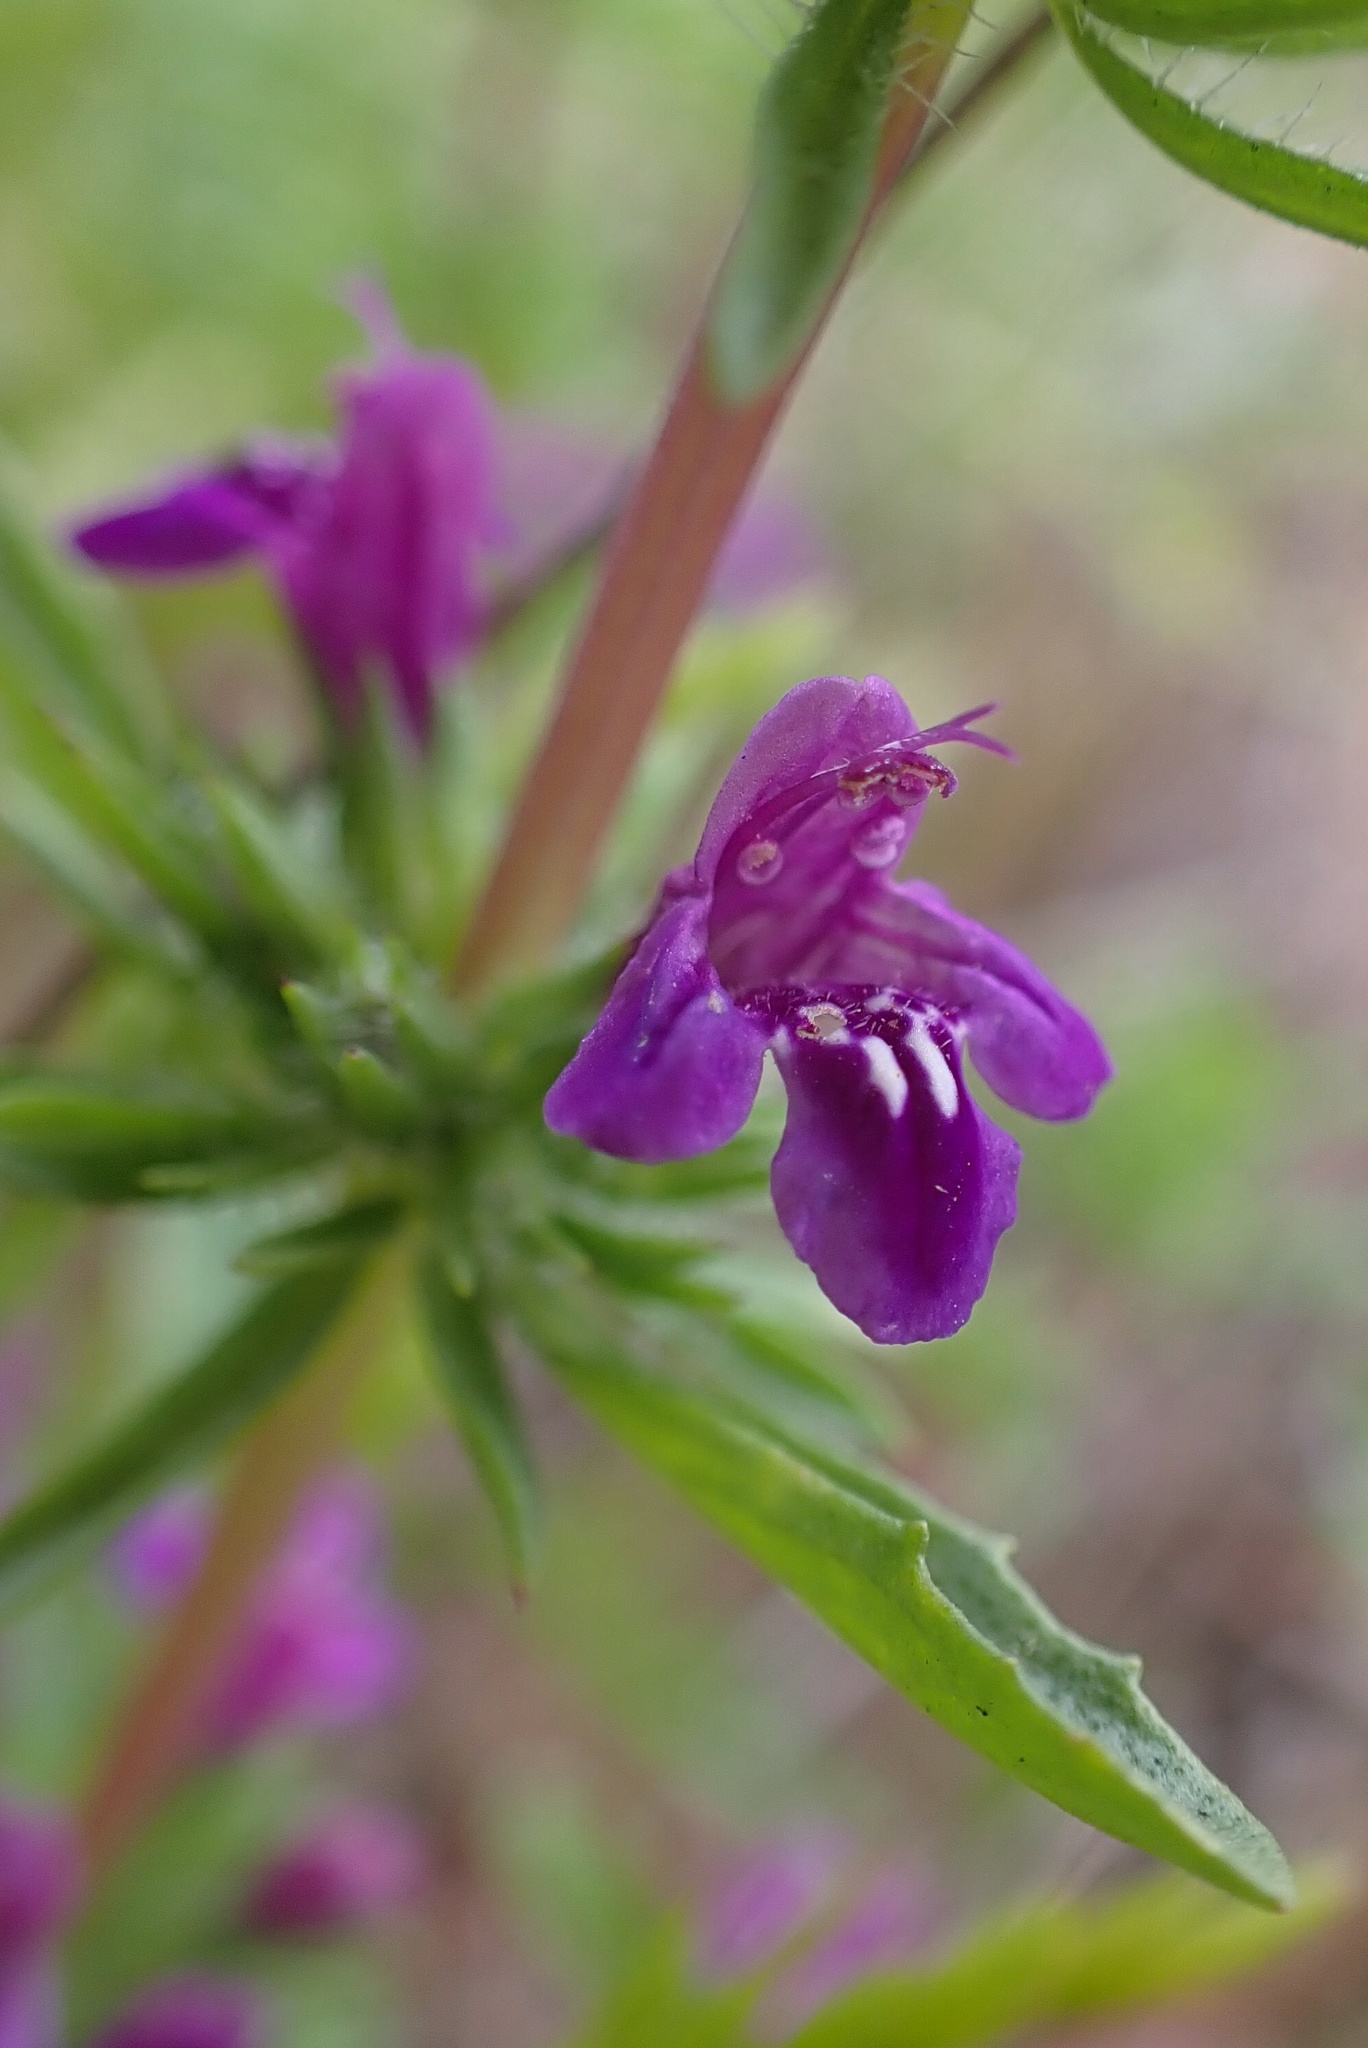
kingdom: Plantae
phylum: Tracheophyta
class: Magnoliopsida
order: Lamiales
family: Lamiaceae
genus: Pogogyne
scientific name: Pogogyne nudiuscula
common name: Otay mesa-mint
